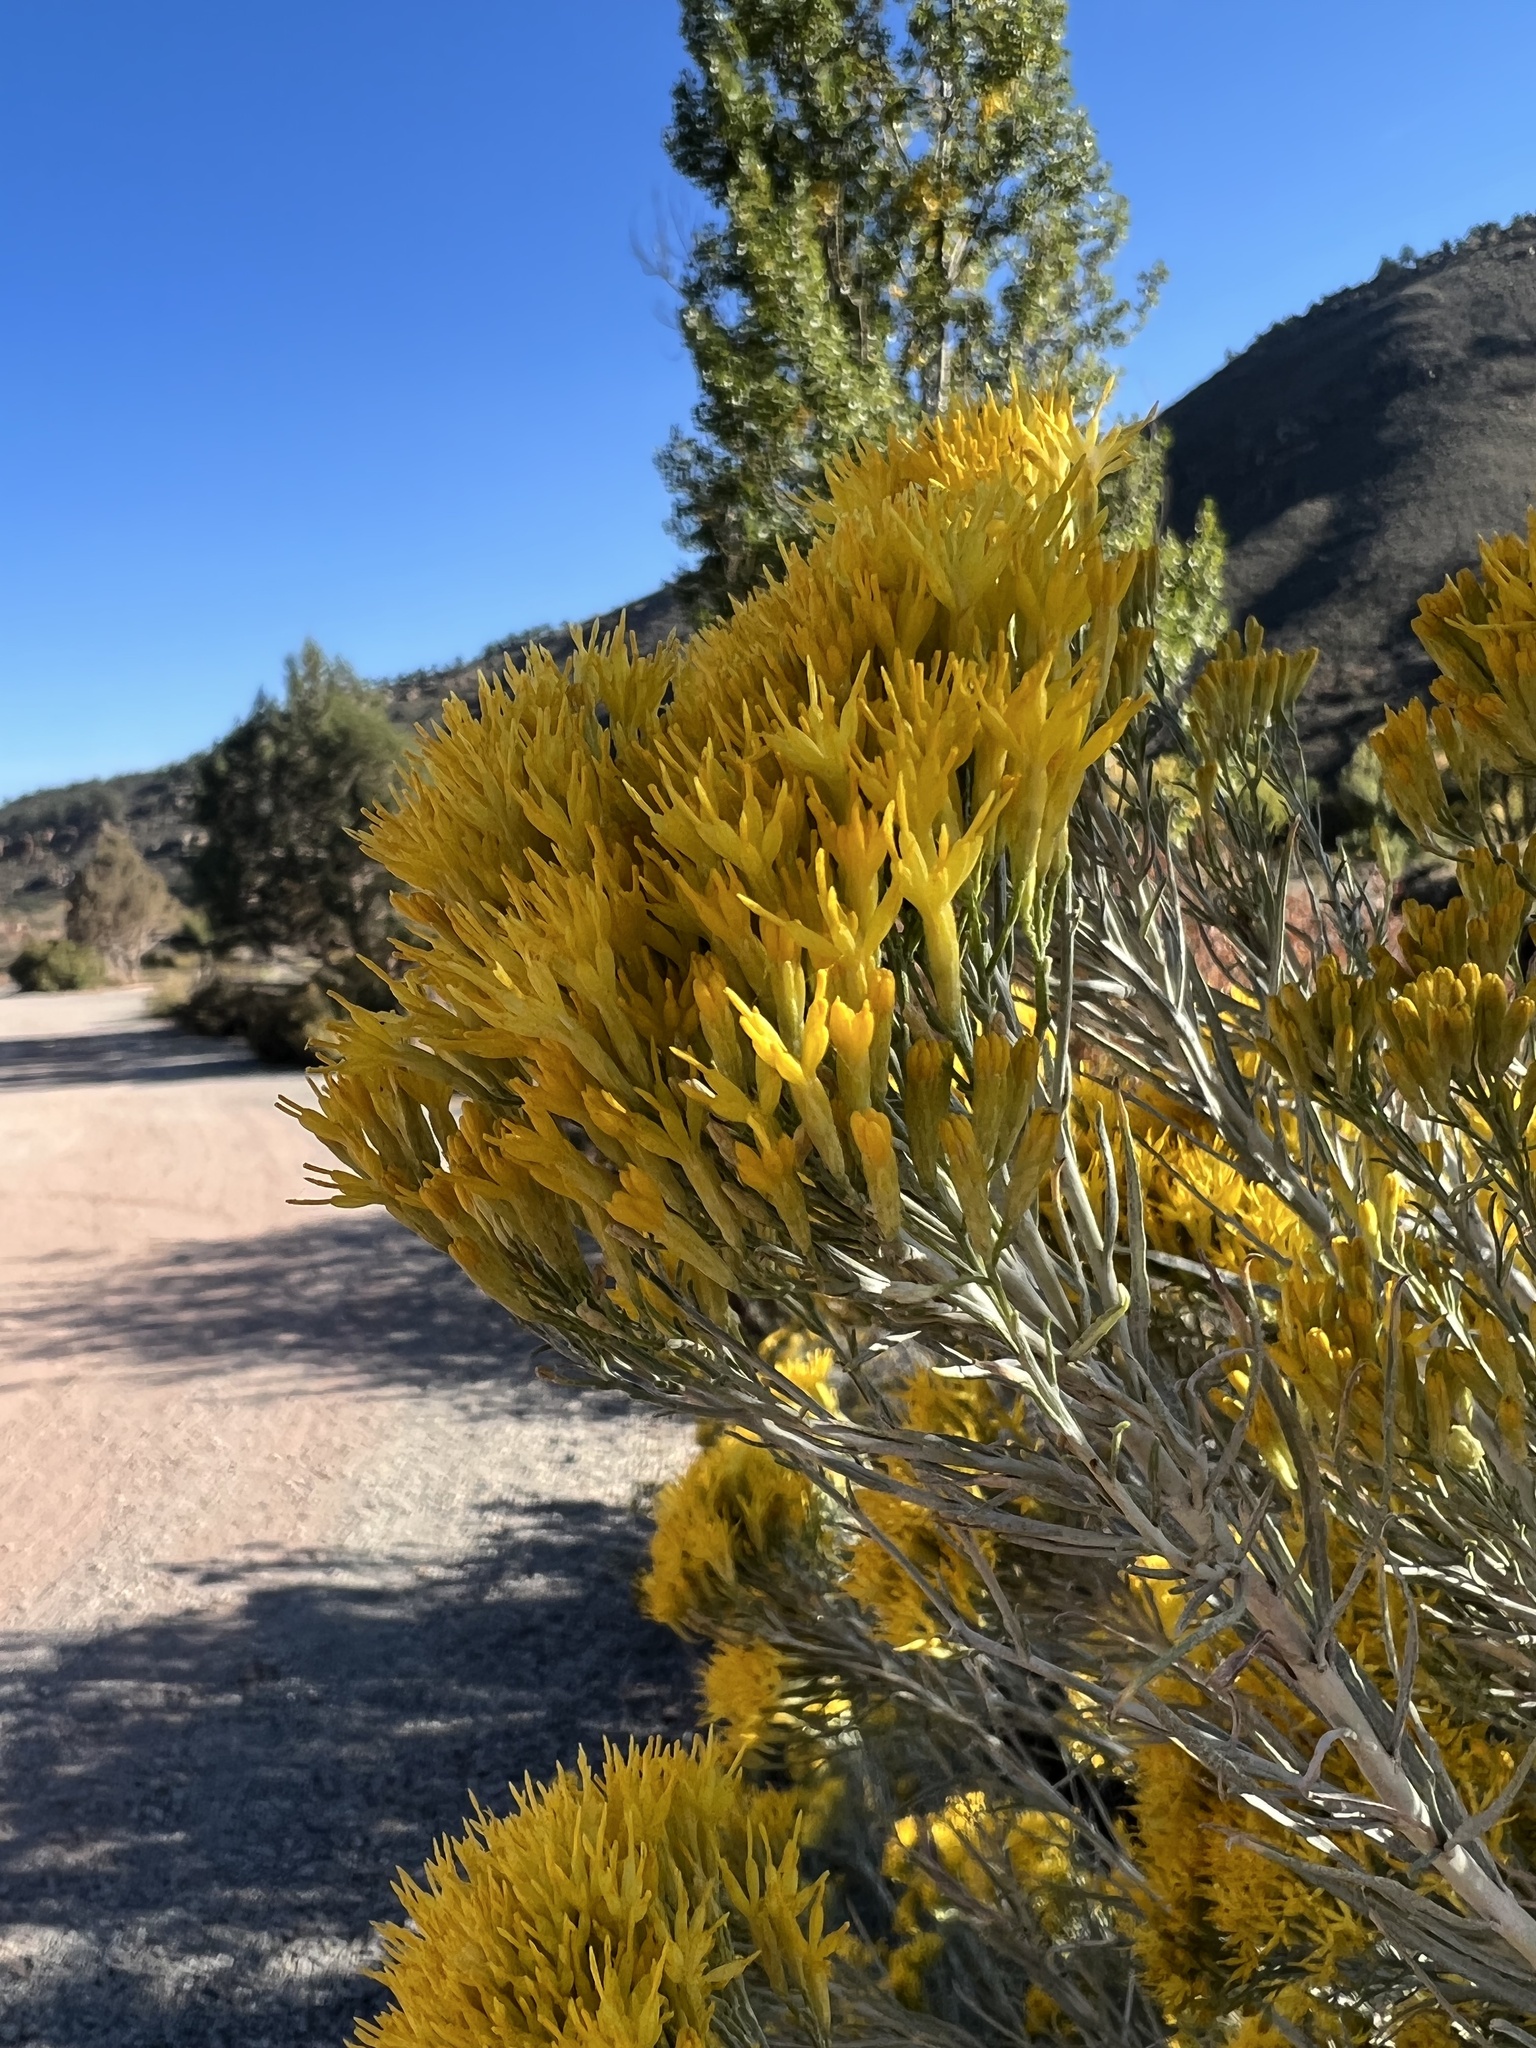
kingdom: Plantae
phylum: Tracheophyta
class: Magnoliopsida
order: Asterales
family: Asteraceae
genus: Ericameria
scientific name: Ericameria nauseosa
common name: Rubber rabbitbrush
